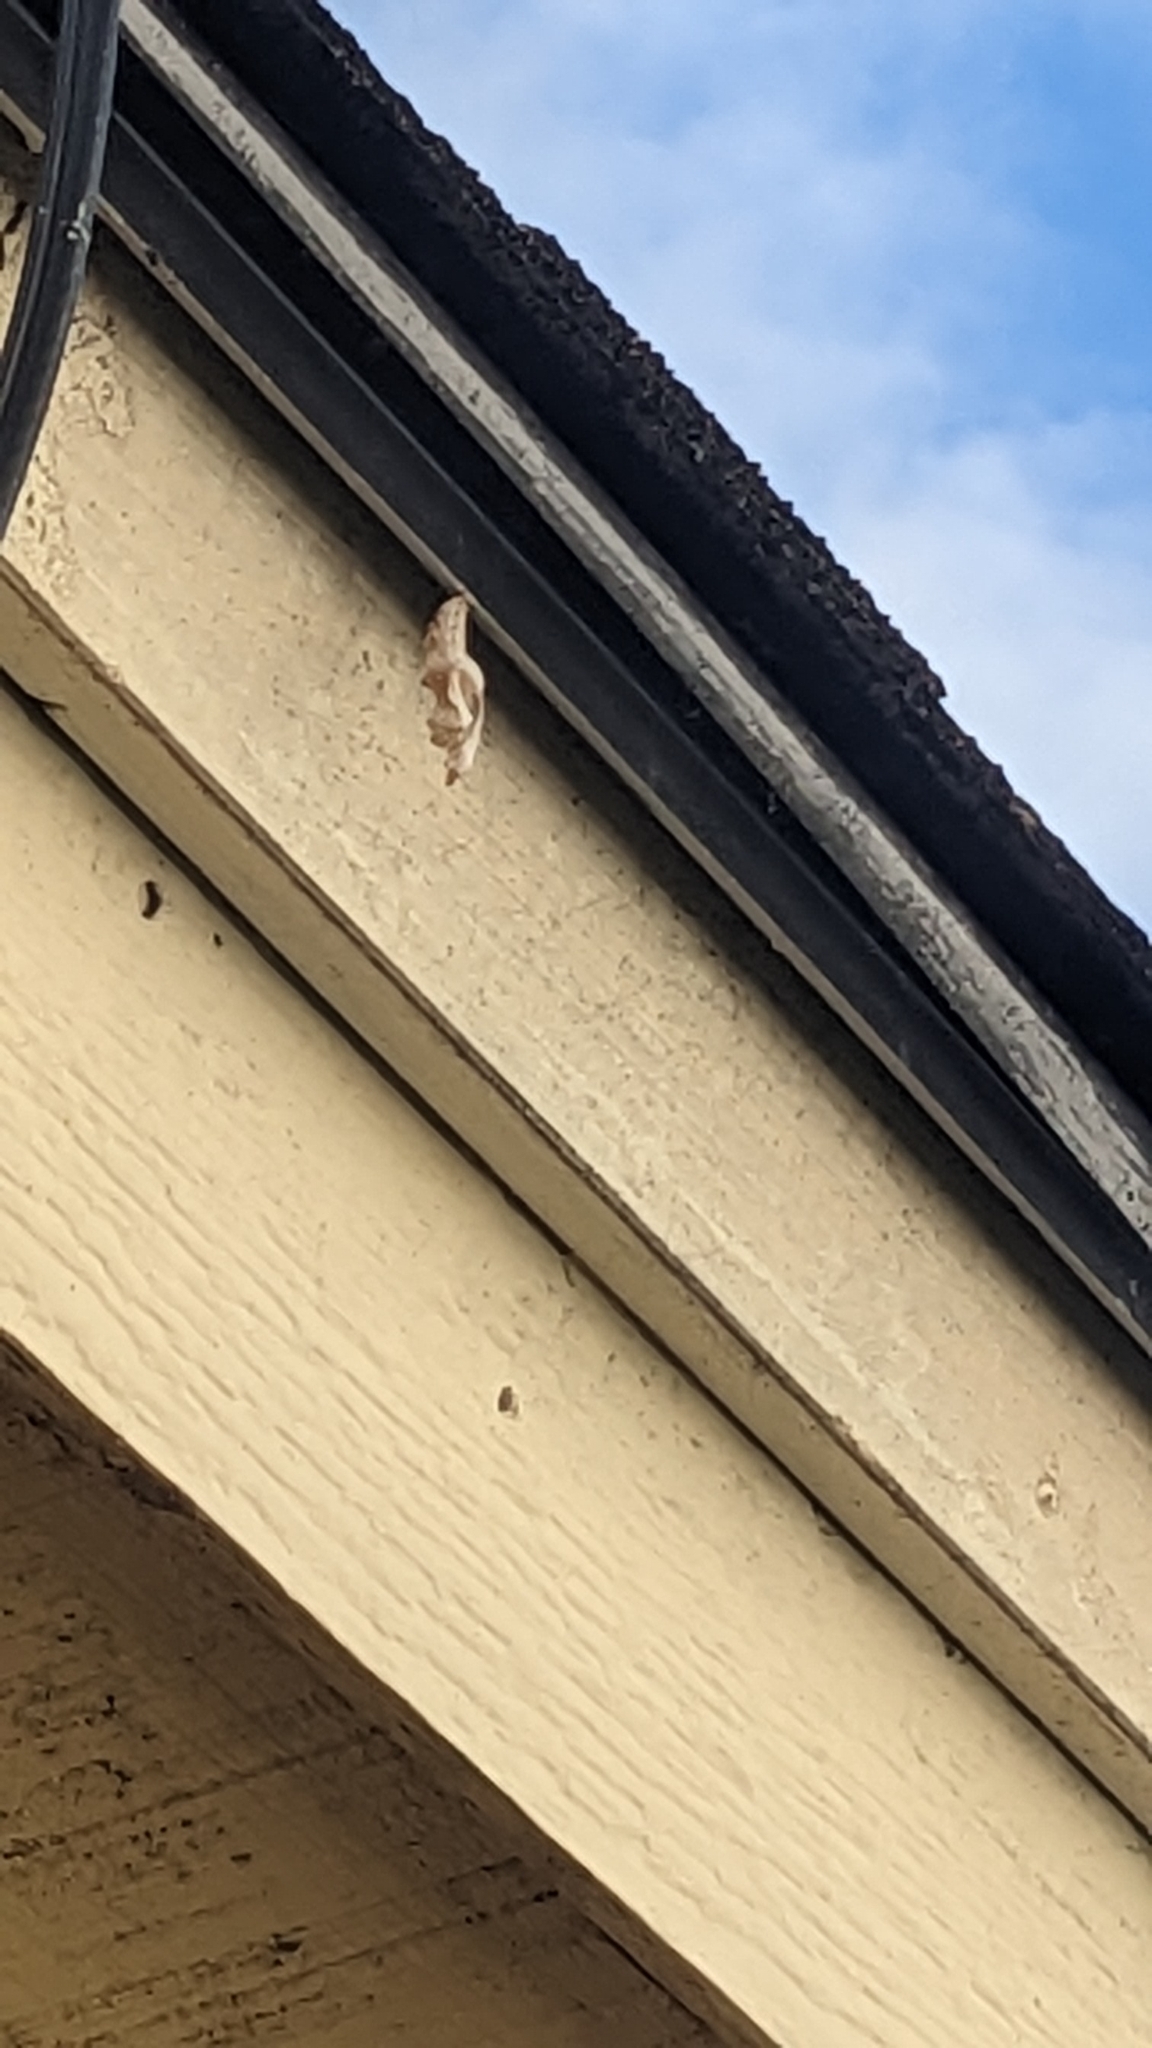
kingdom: Animalia
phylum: Arthropoda
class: Insecta
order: Lepidoptera
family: Nymphalidae
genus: Dione
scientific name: Dione vanillae
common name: Gulf fritillary
